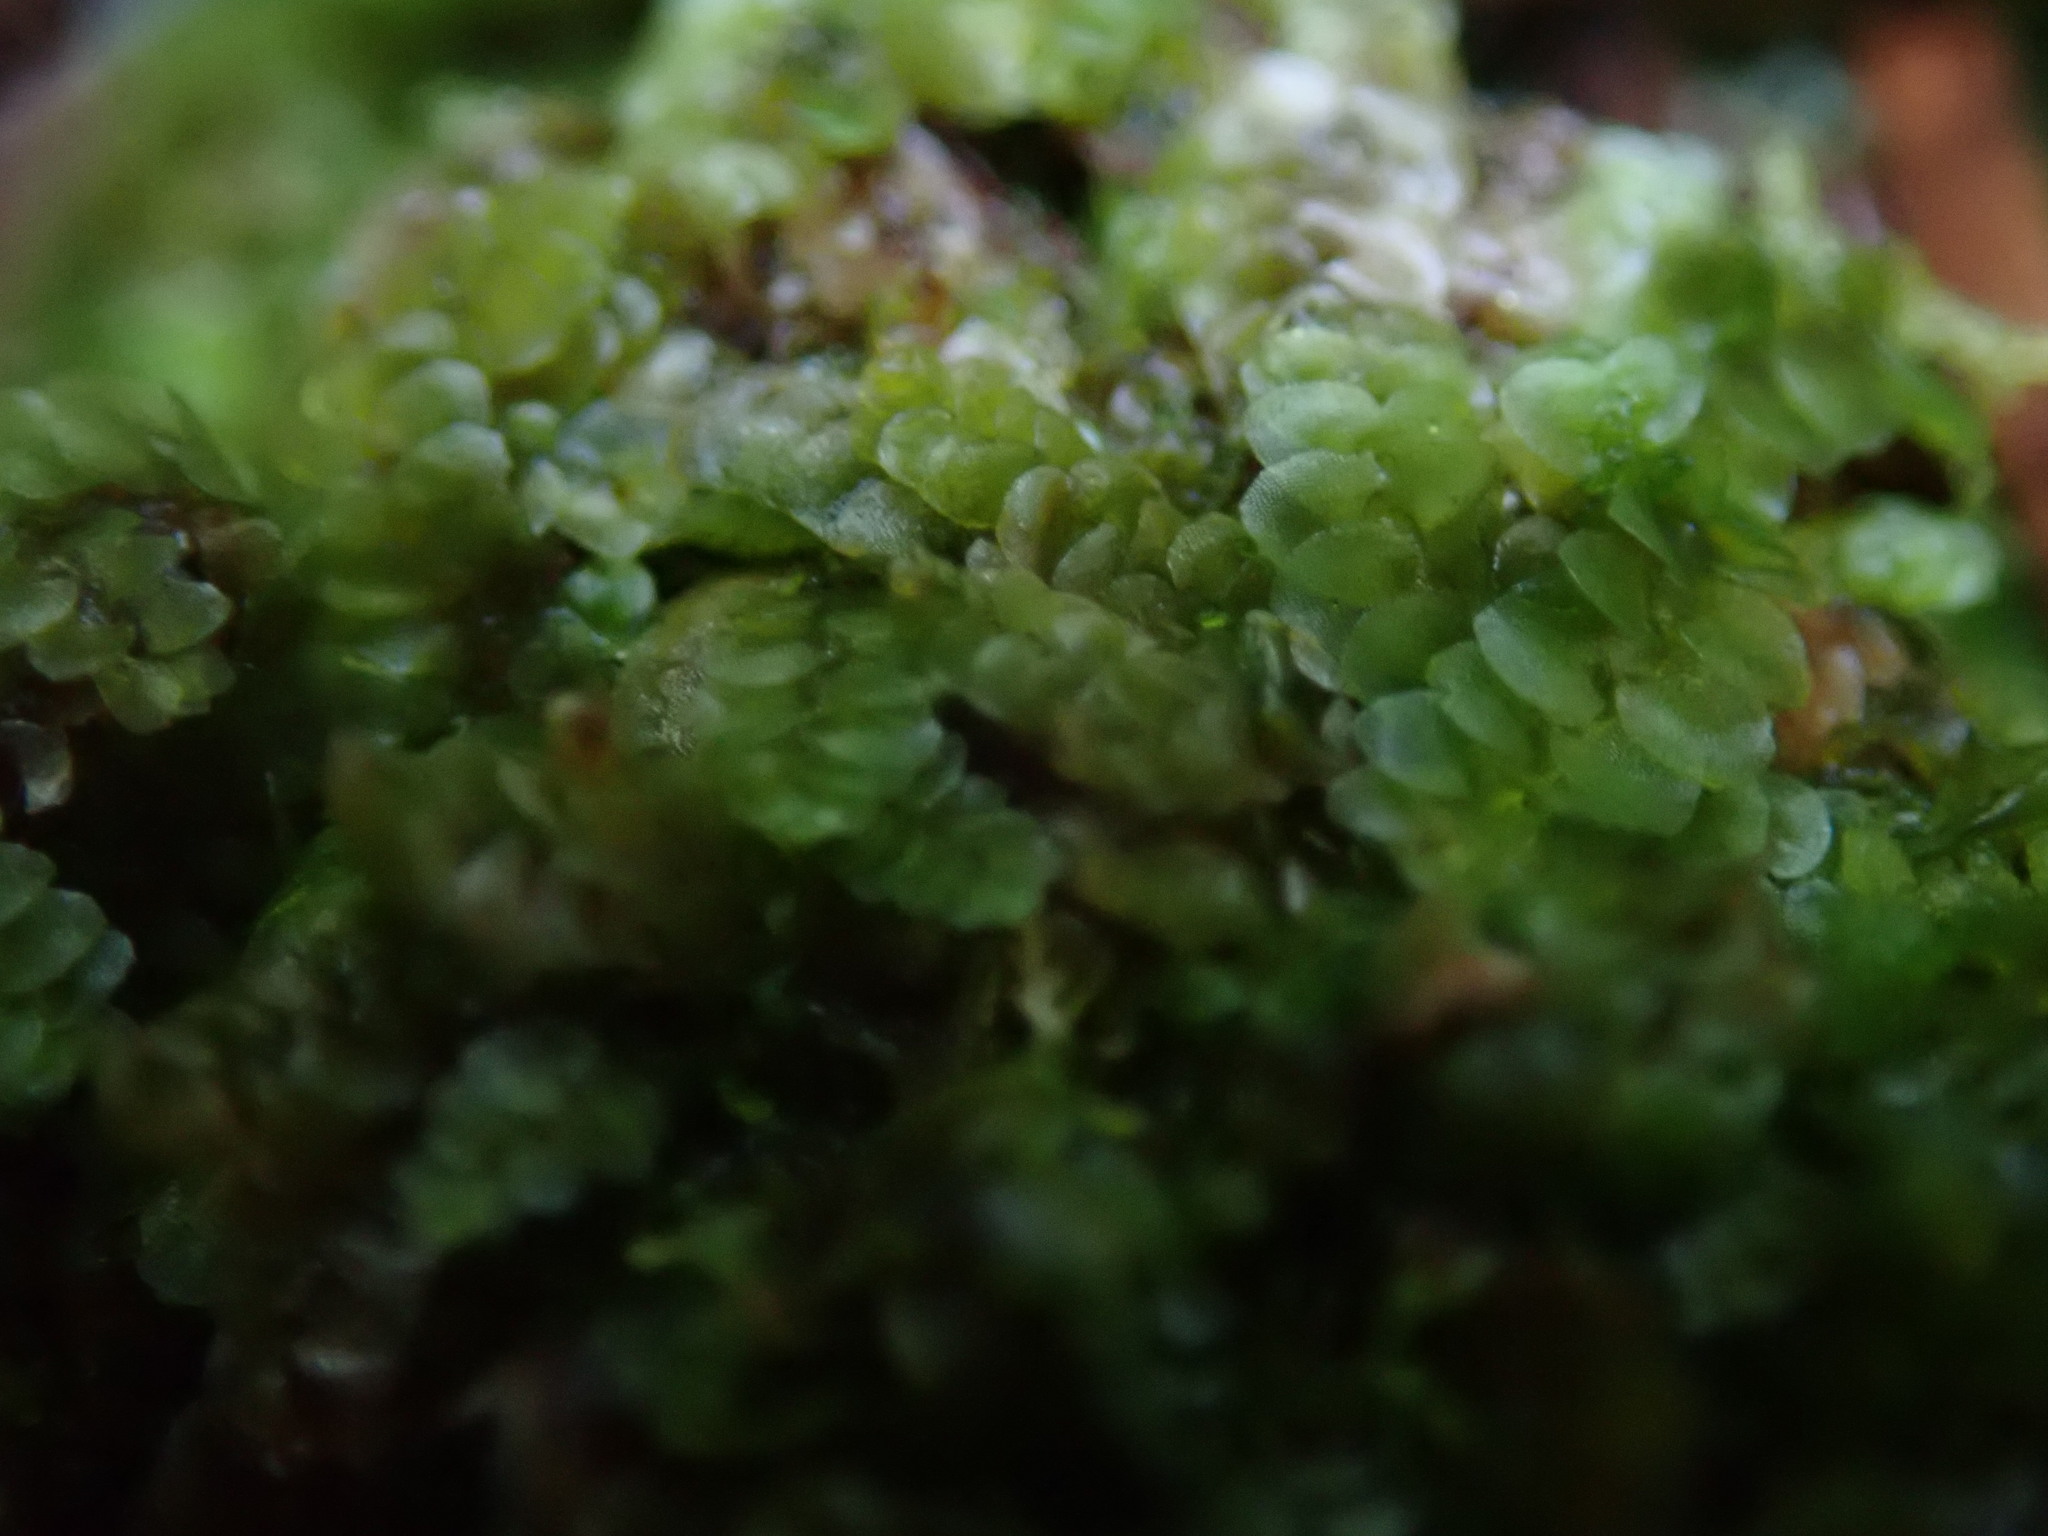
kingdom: Plantae
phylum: Marchantiophyta
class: Jungermanniopsida
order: Jungermanniales
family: Calypogeiaceae
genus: Calypogeia
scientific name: Calypogeia muelleriana
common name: Mueller s pouchwort
